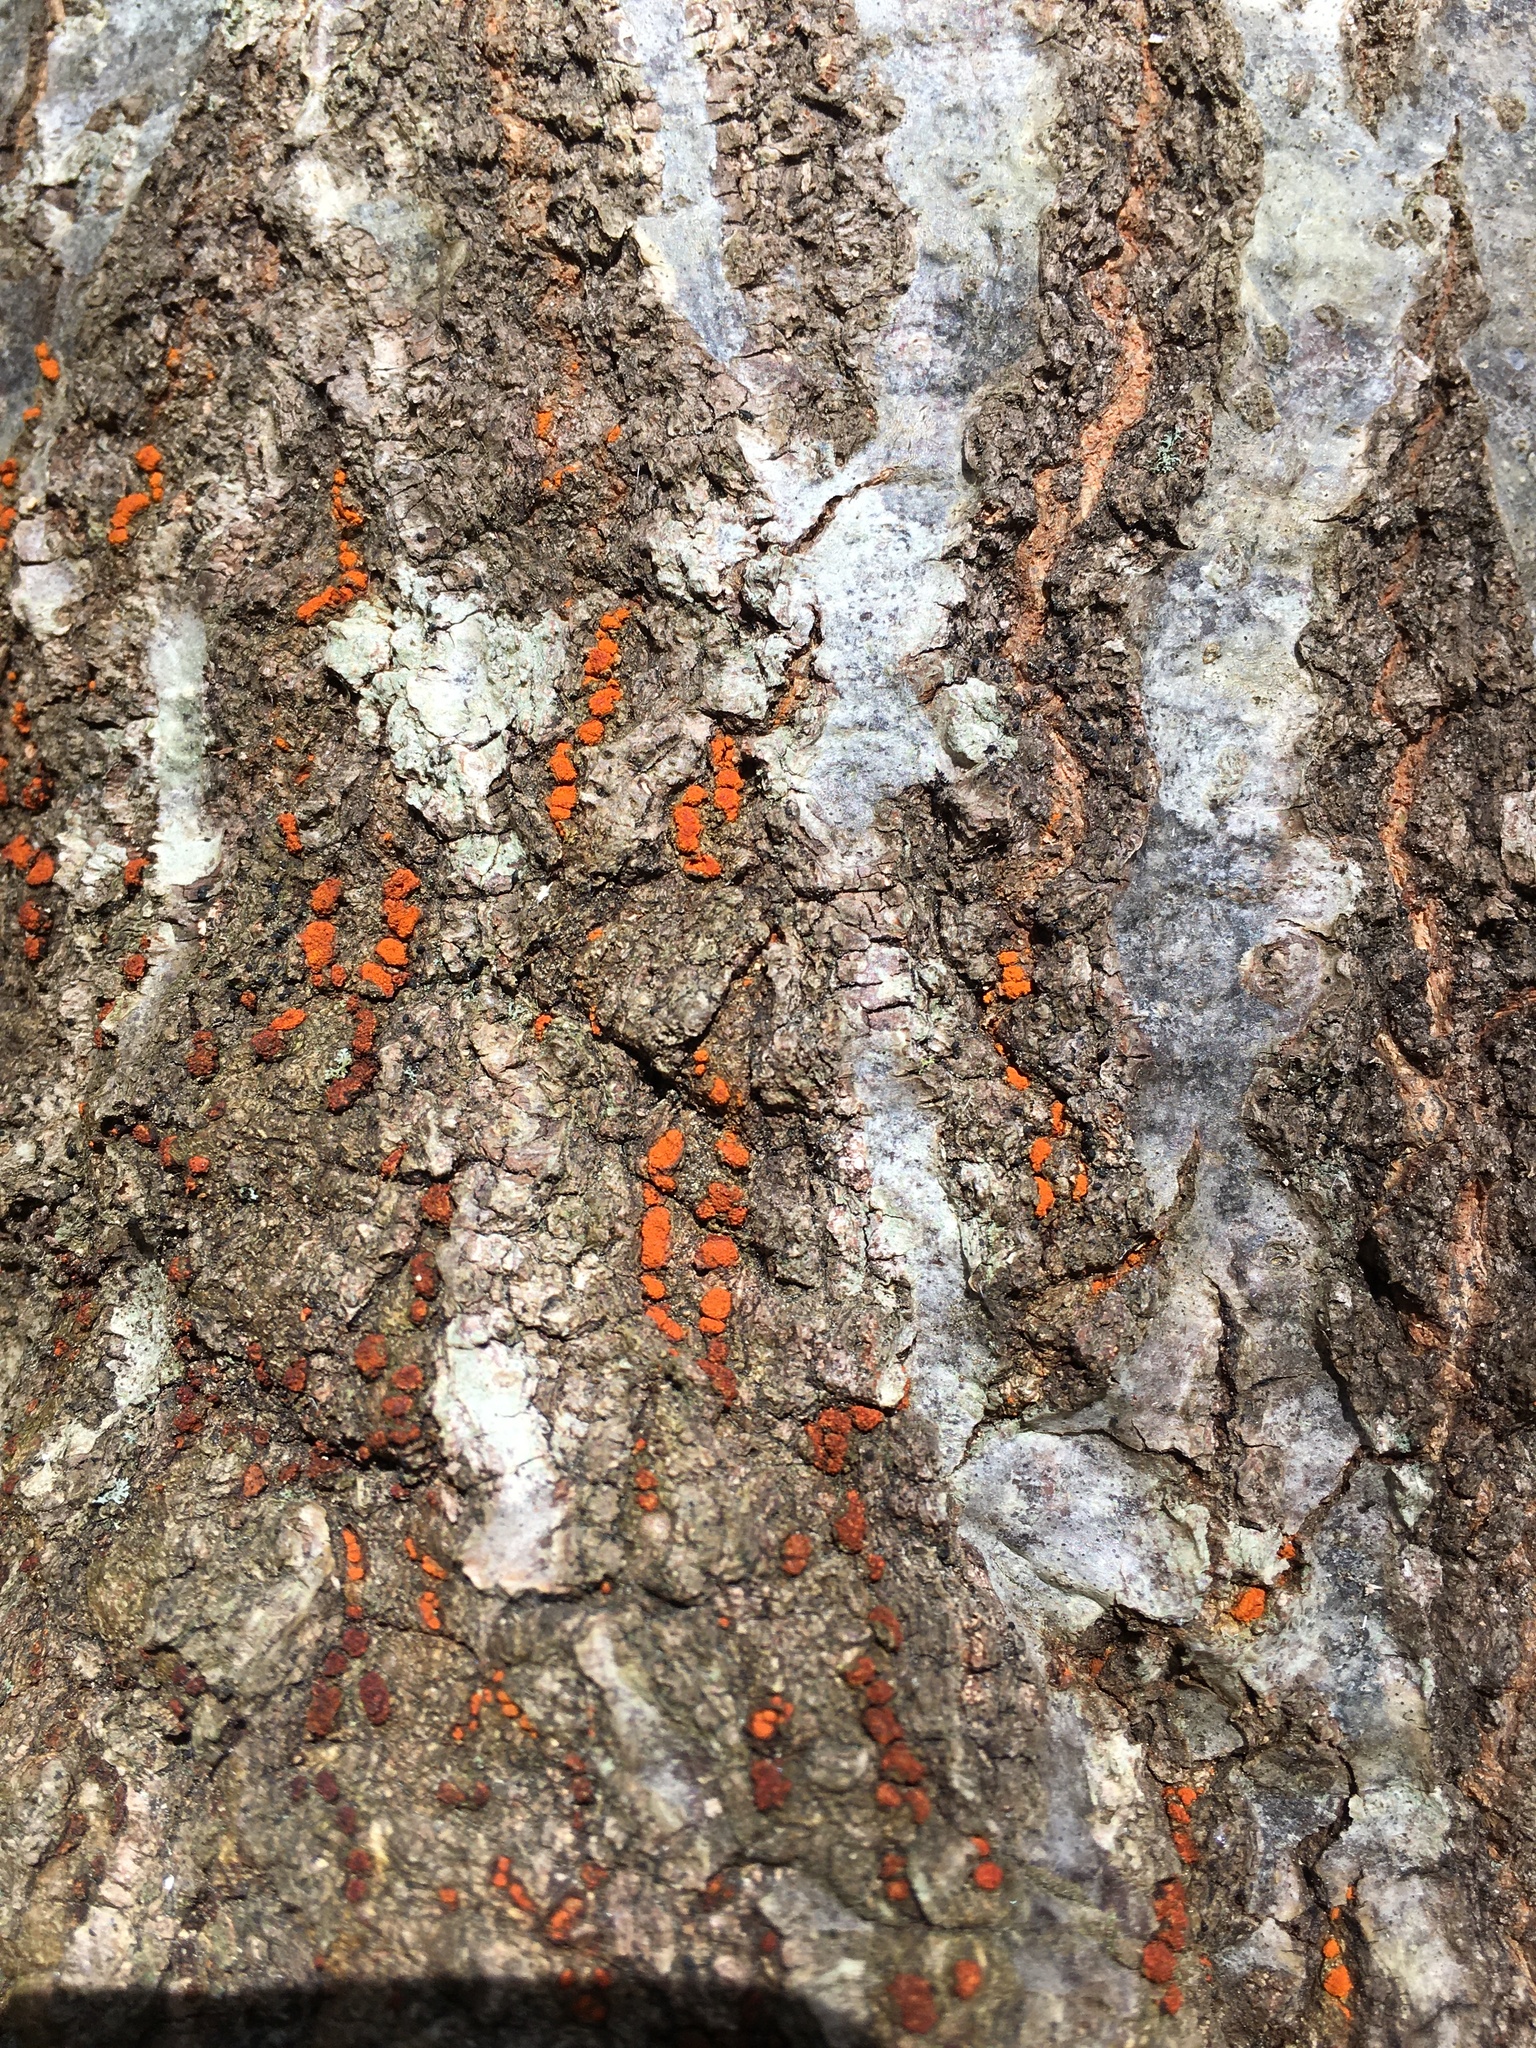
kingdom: Fungi
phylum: Ascomycota
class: Sordariomycetes
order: Diaporthales
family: Cryphonectriaceae
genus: Amphilogia
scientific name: Amphilogia gyrosa
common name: Orange hobnail canker
